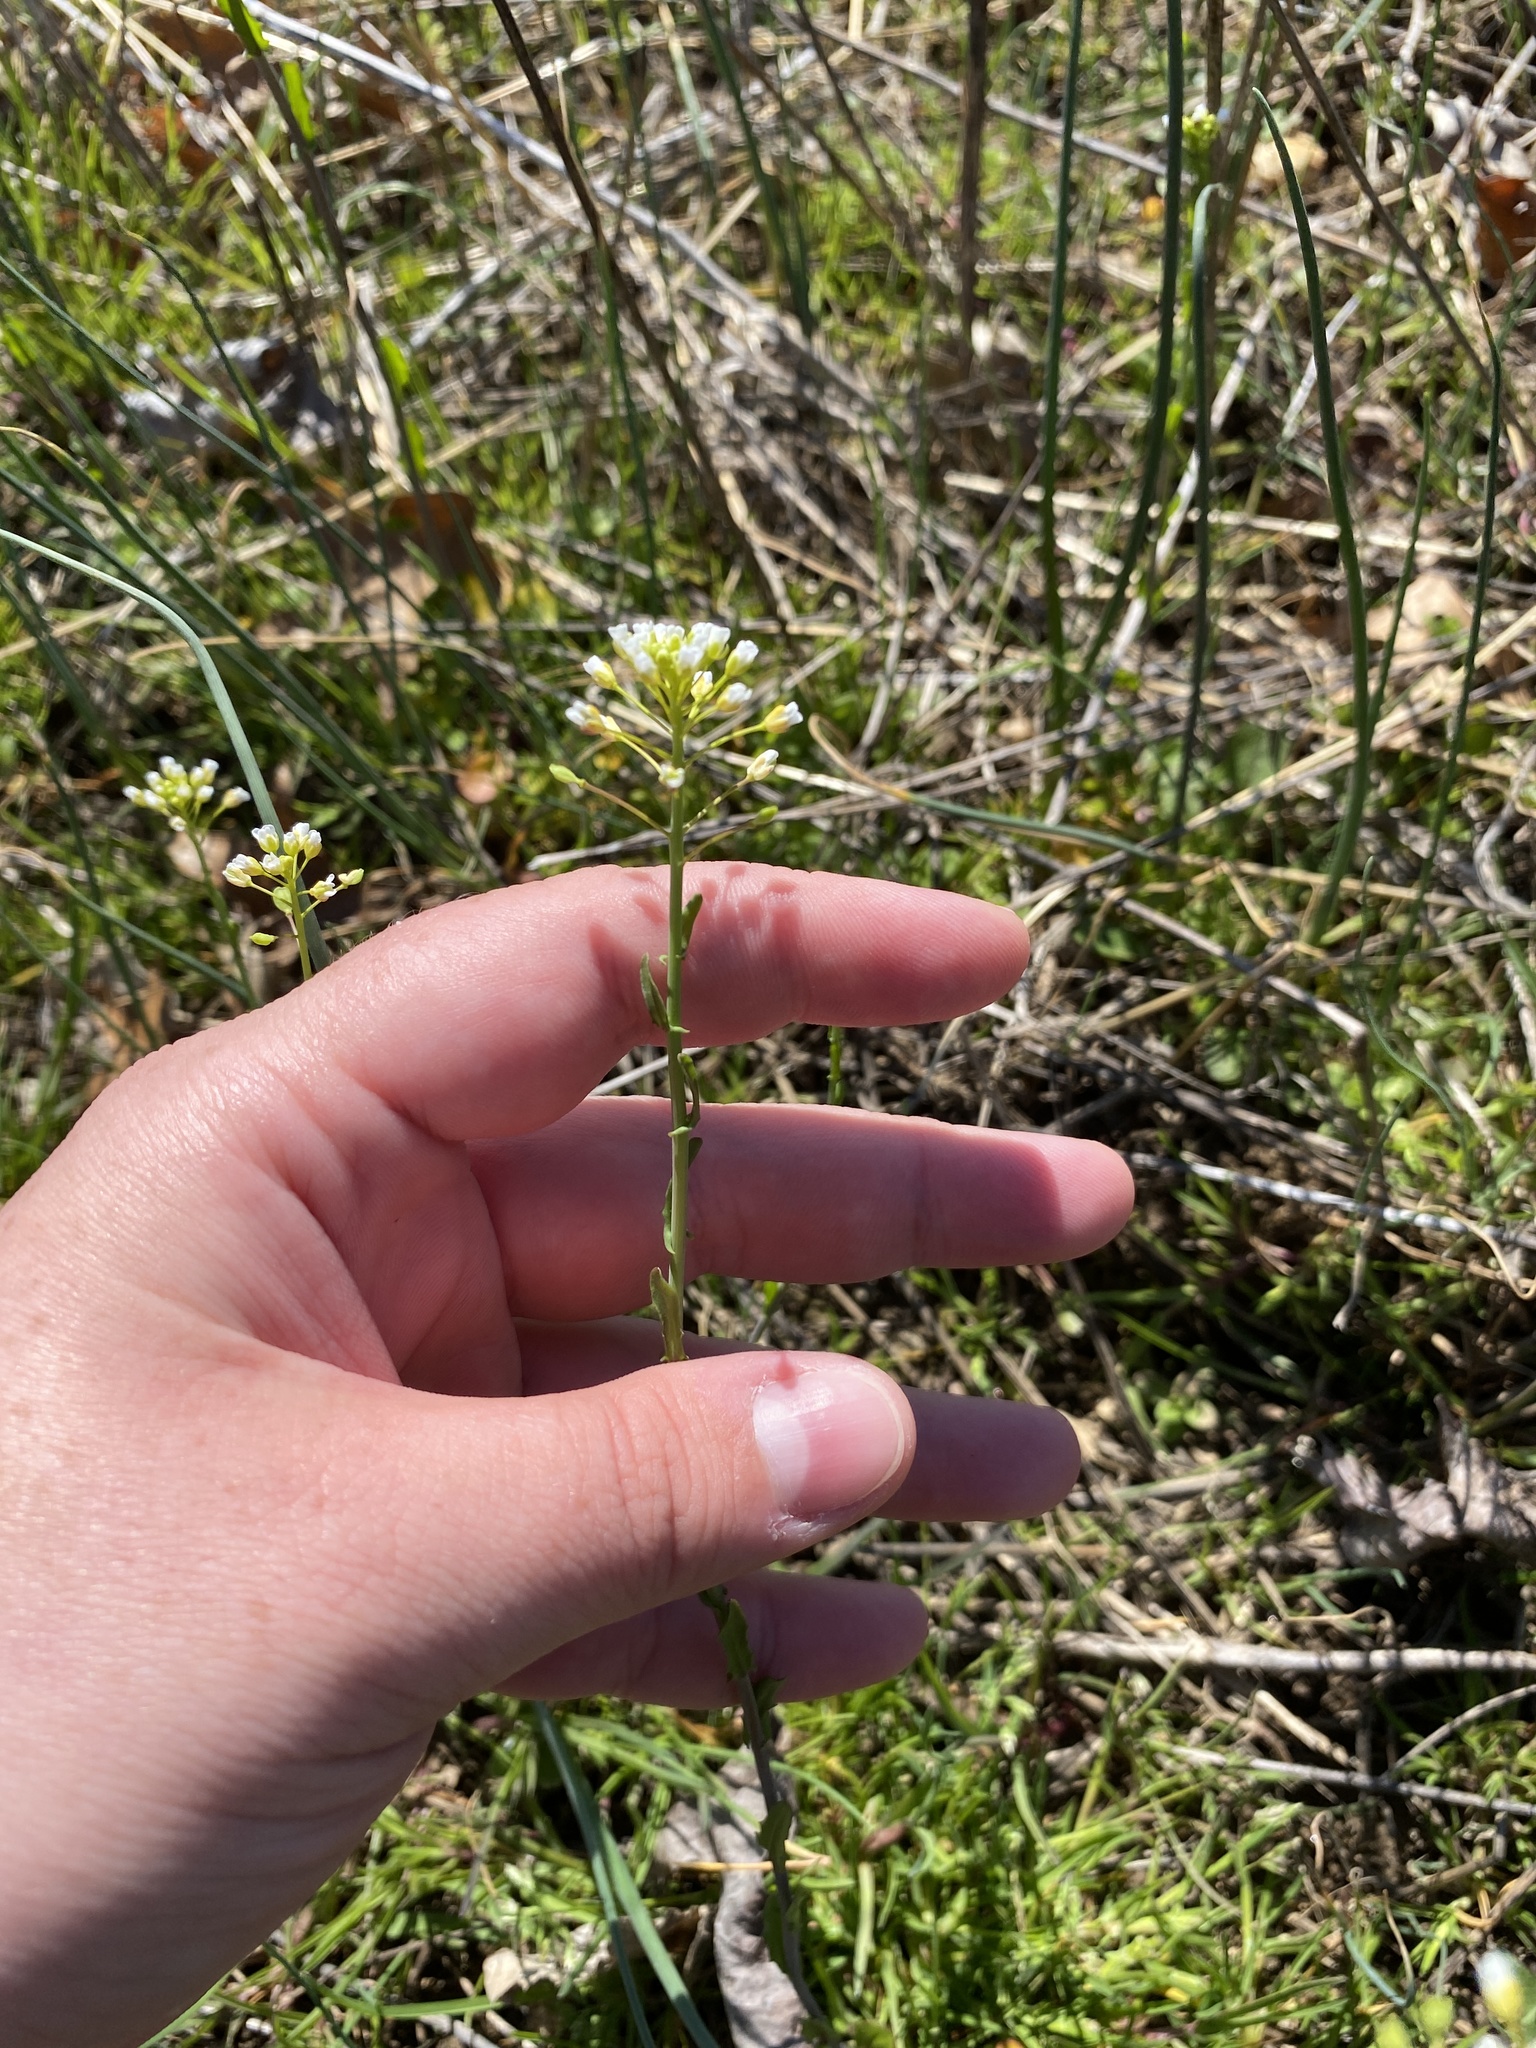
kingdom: Plantae
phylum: Tracheophyta
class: Magnoliopsida
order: Brassicales
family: Brassicaceae
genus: Mummenhoffia
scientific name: Mummenhoffia alliacea
